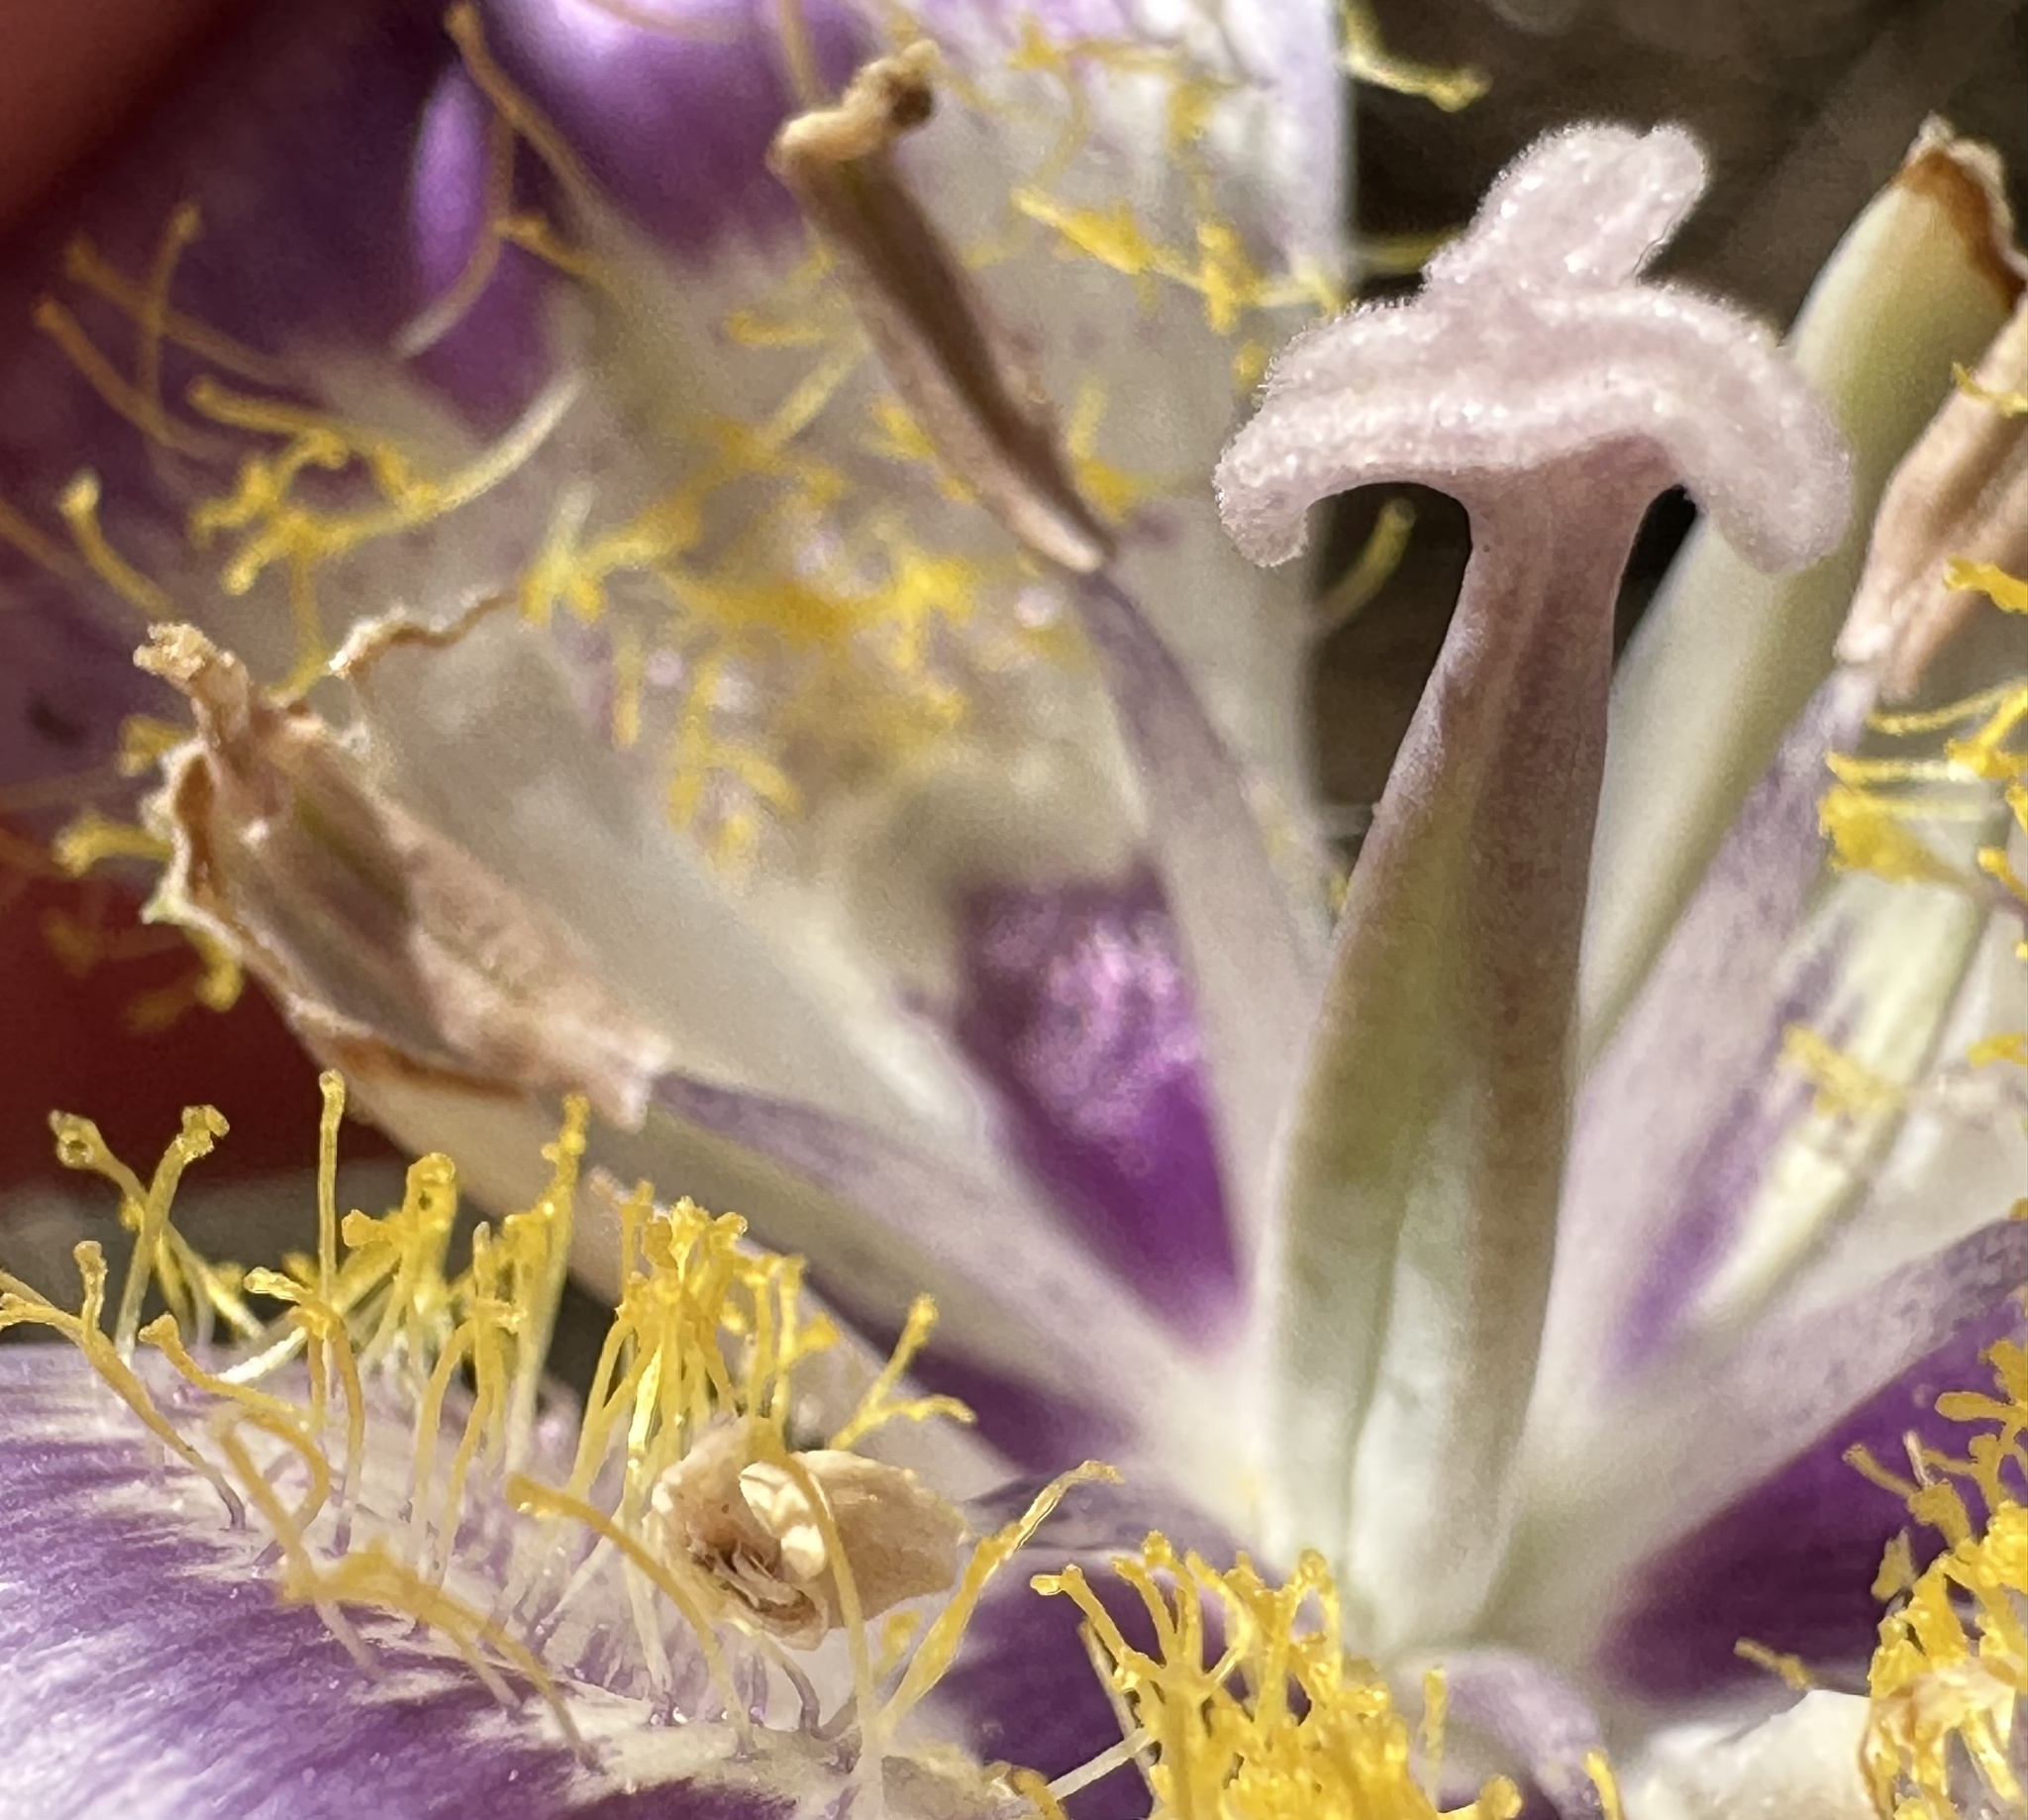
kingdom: Plantae
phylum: Tracheophyta
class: Liliopsida
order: Liliales
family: Liliaceae
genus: Calochortus
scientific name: Calochortus macrocarpus
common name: Green-band mariposa lily
